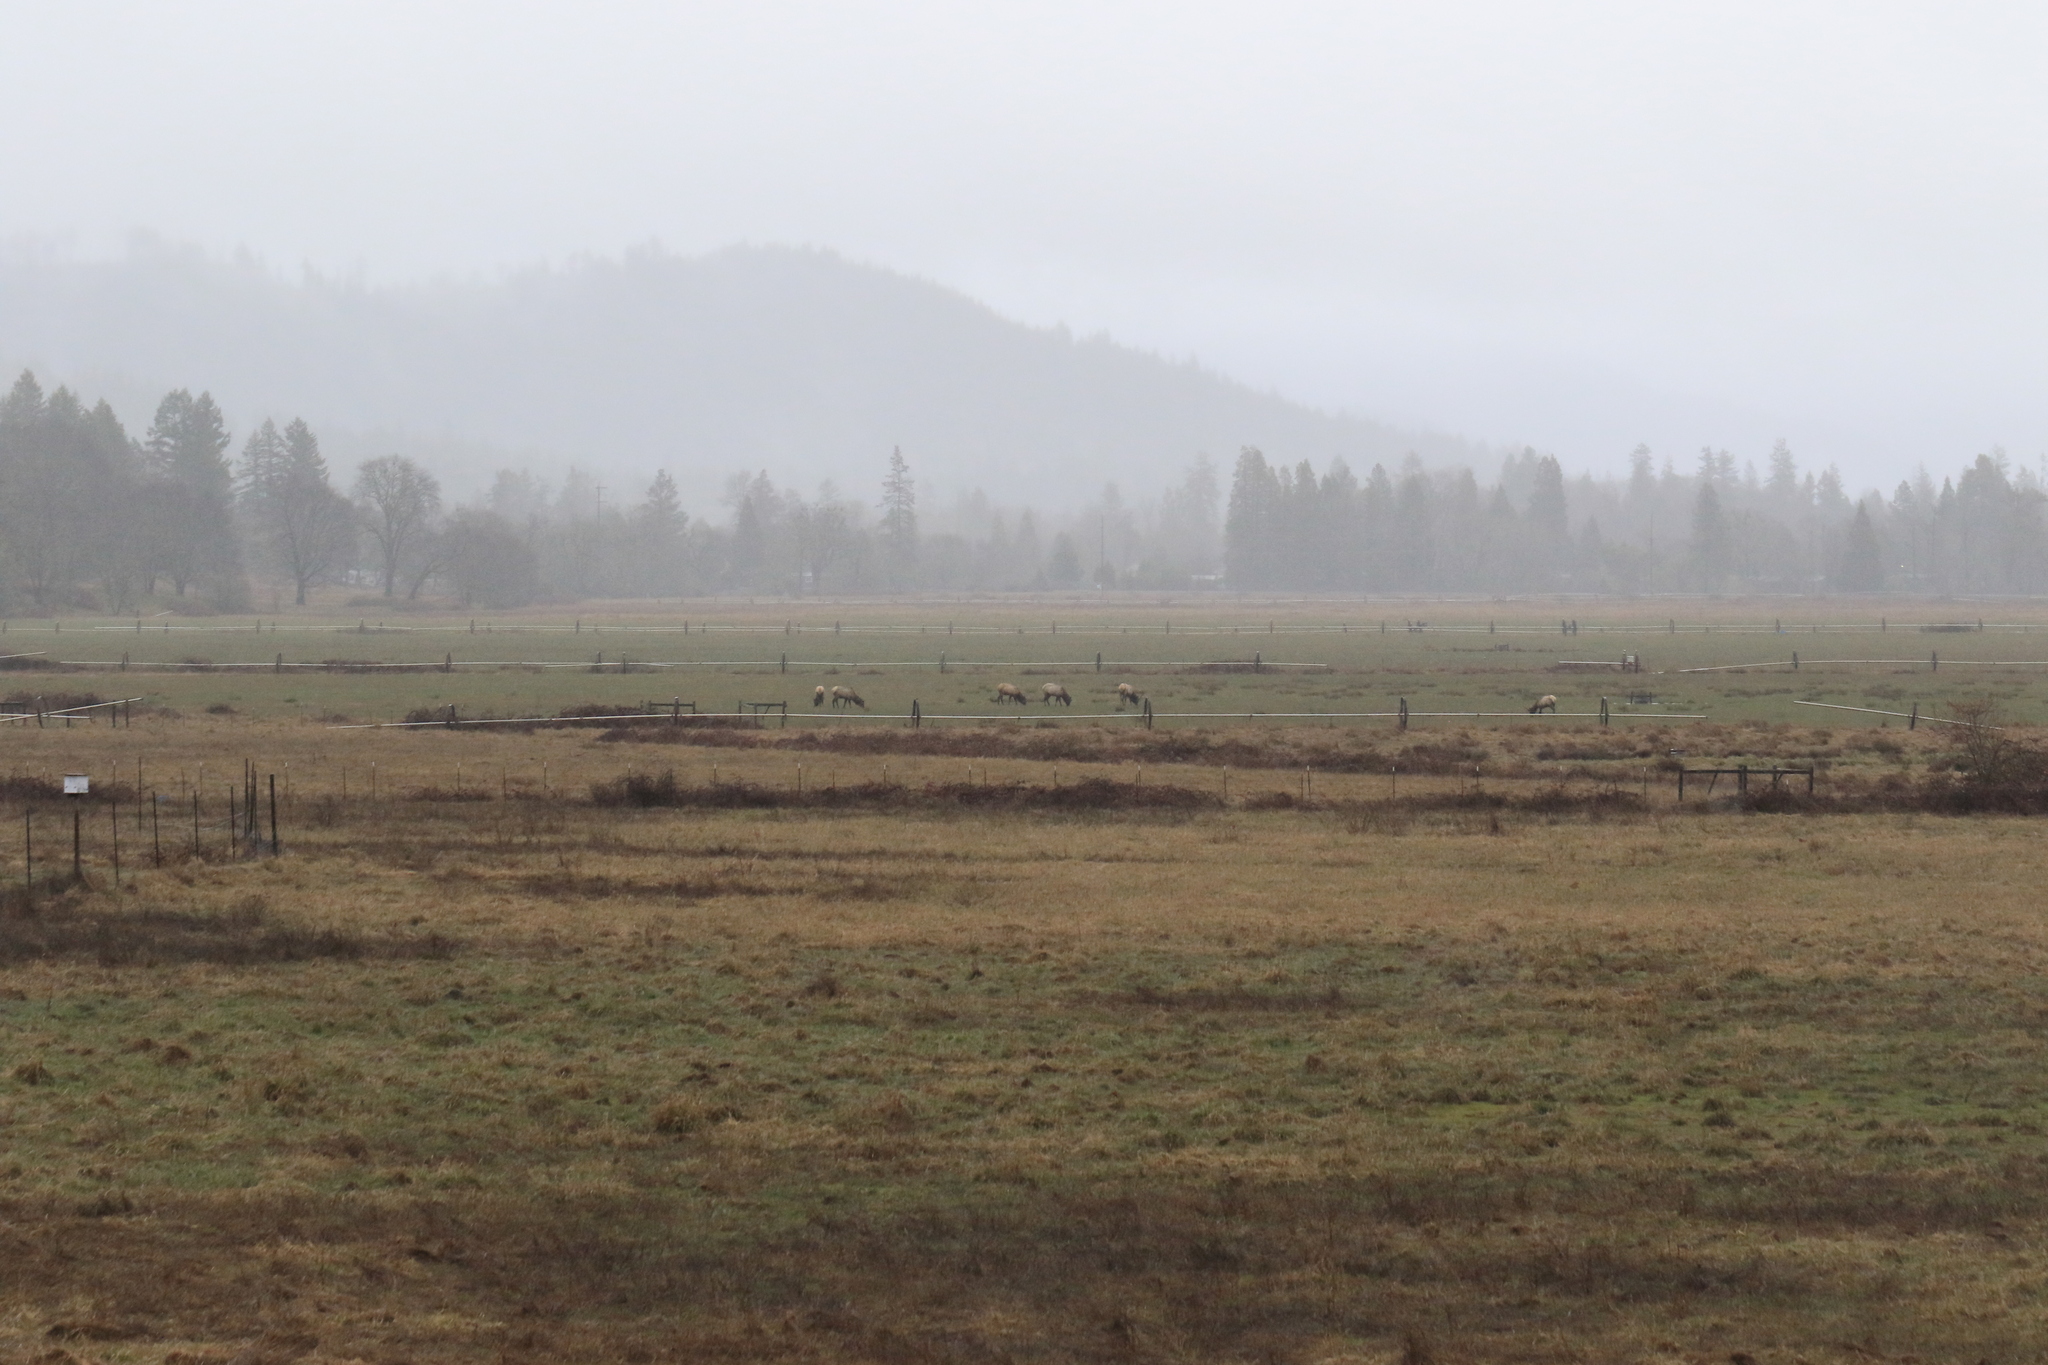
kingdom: Animalia
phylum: Chordata
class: Mammalia
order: Artiodactyla
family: Cervidae
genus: Cervus
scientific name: Cervus elaphus
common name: Red deer
